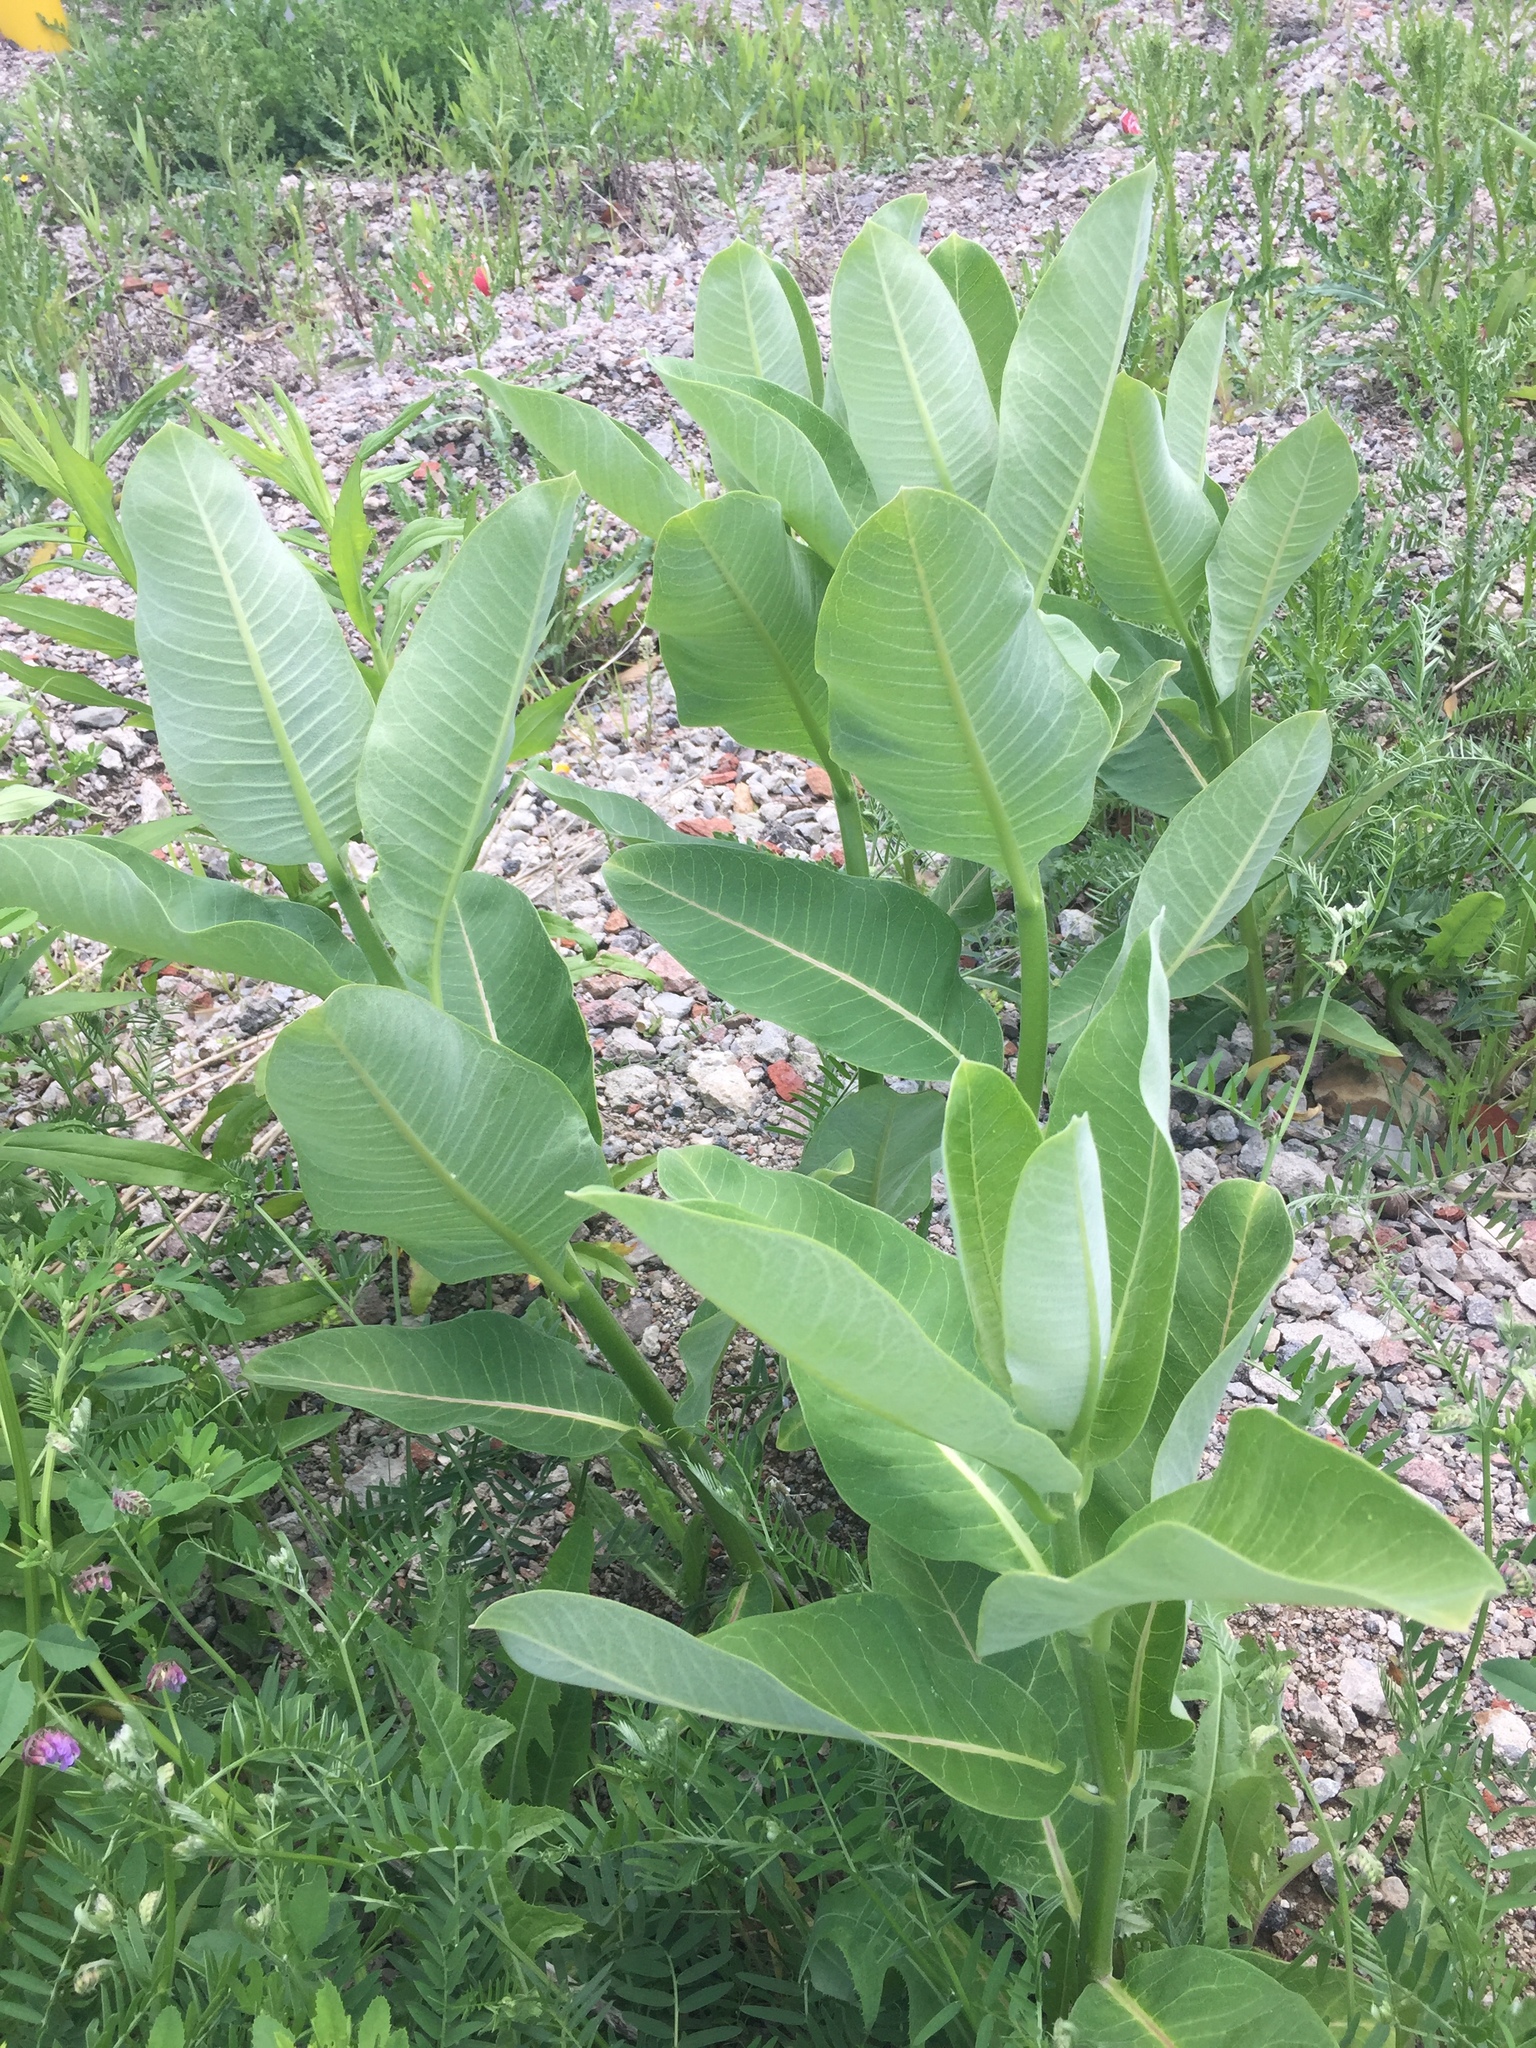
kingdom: Plantae
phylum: Tracheophyta
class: Magnoliopsida
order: Gentianales
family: Apocynaceae
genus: Asclepias
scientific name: Asclepias syriaca
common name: Common milkweed
